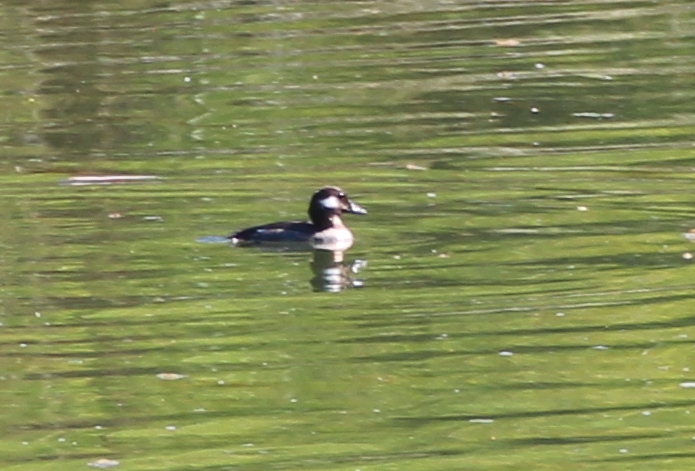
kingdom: Animalia
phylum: Chordata
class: Aves
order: Anseriformes
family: Anatidae
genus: Bucephala
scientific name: Bucephala albeola
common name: Bufflehead
